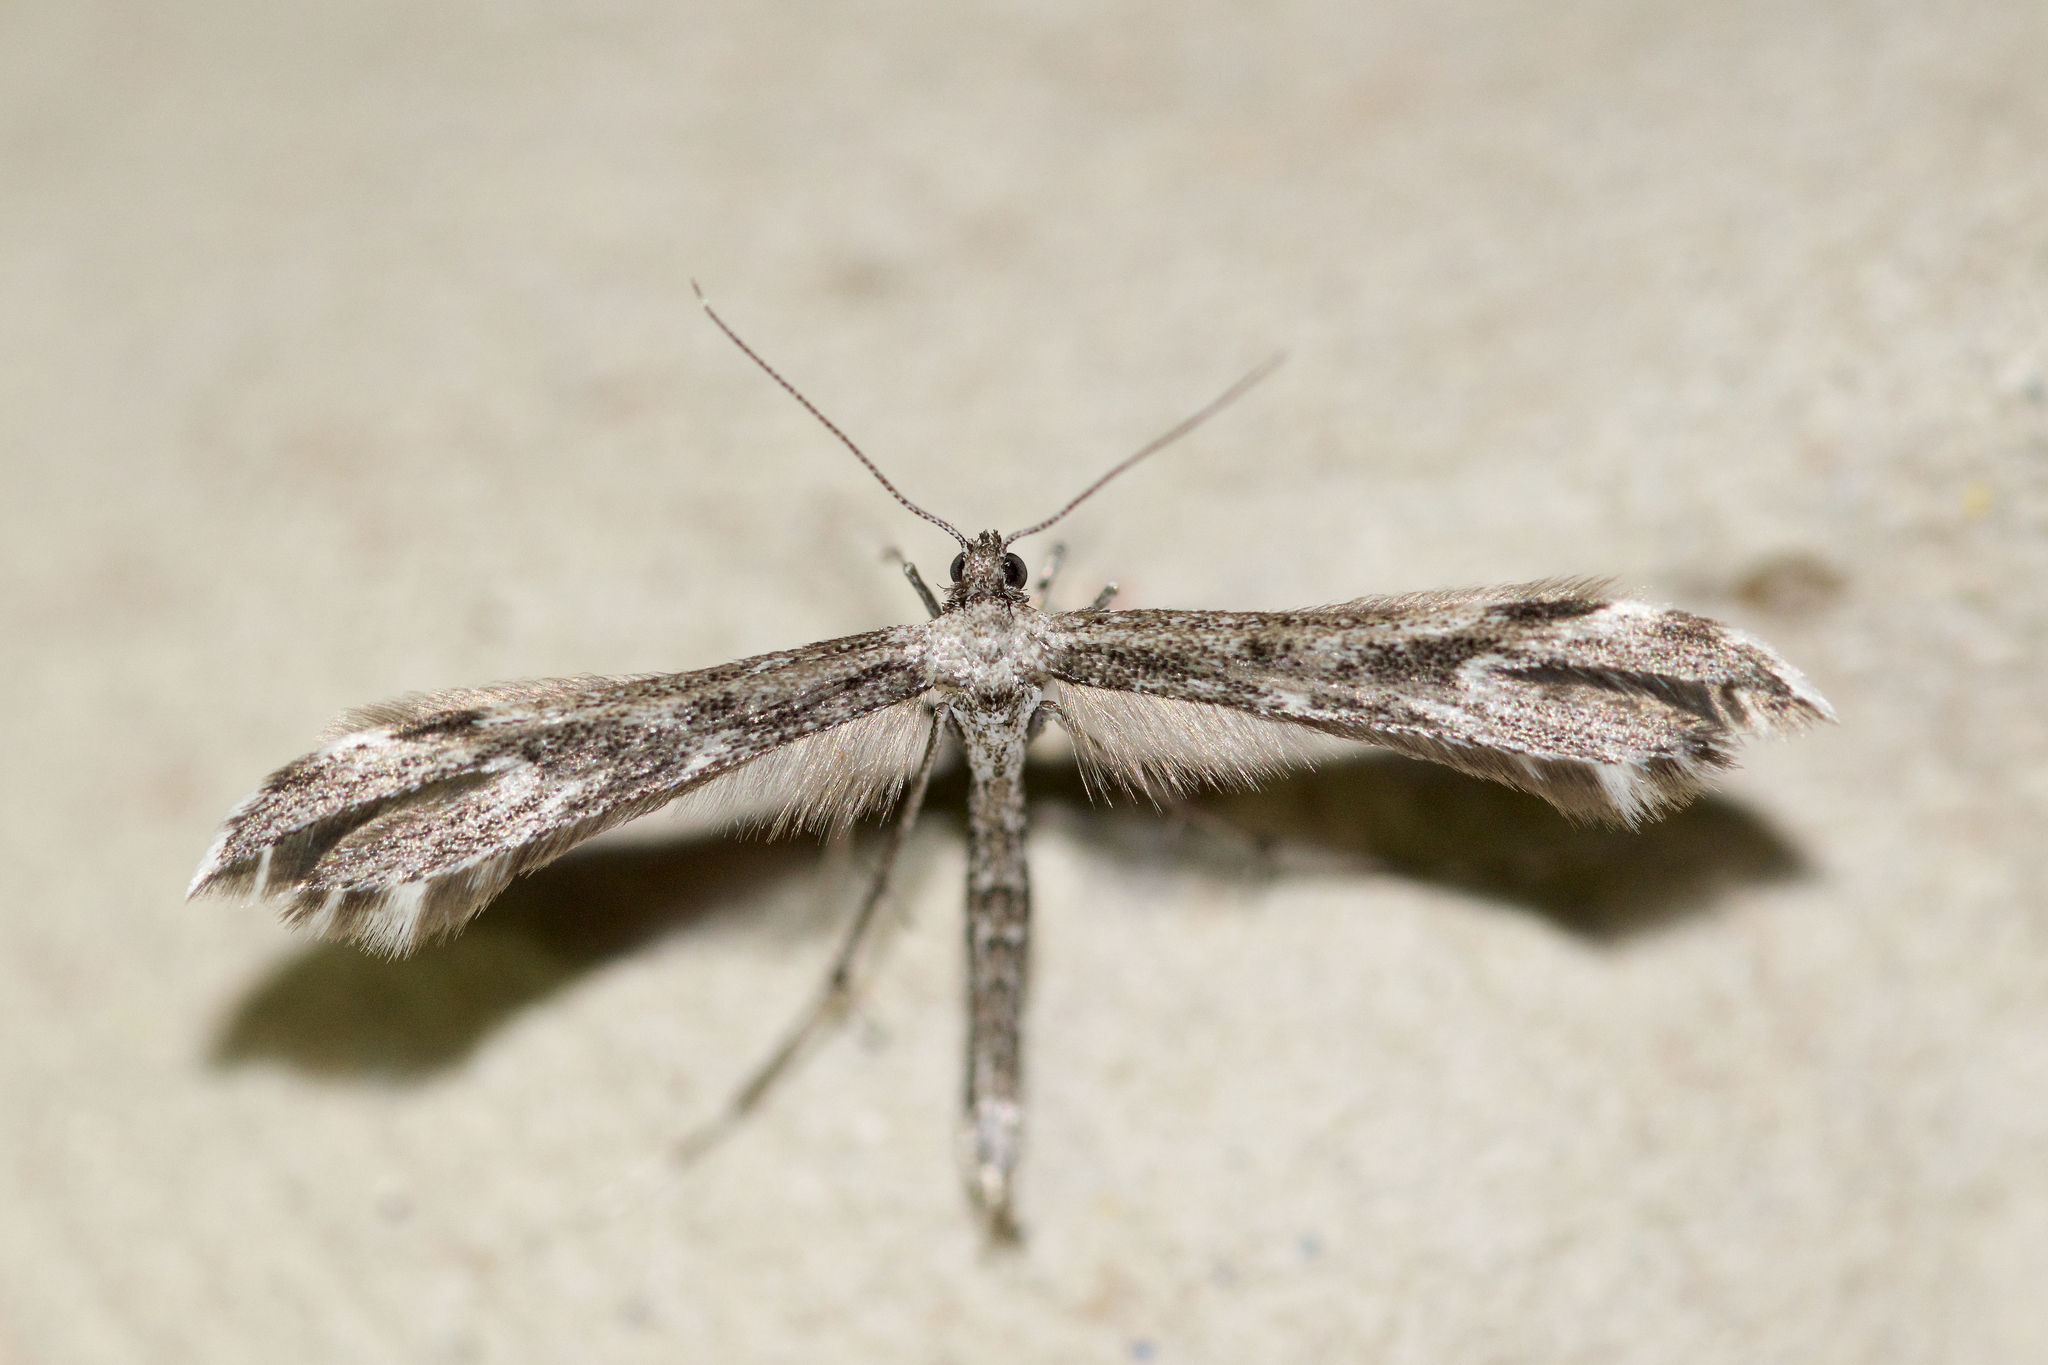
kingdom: Animalia
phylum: Arthropoda
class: Insecta
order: Lepidoptera
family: Pterophoridae
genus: Hellinsia
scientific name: Hellinsia inquinatus
